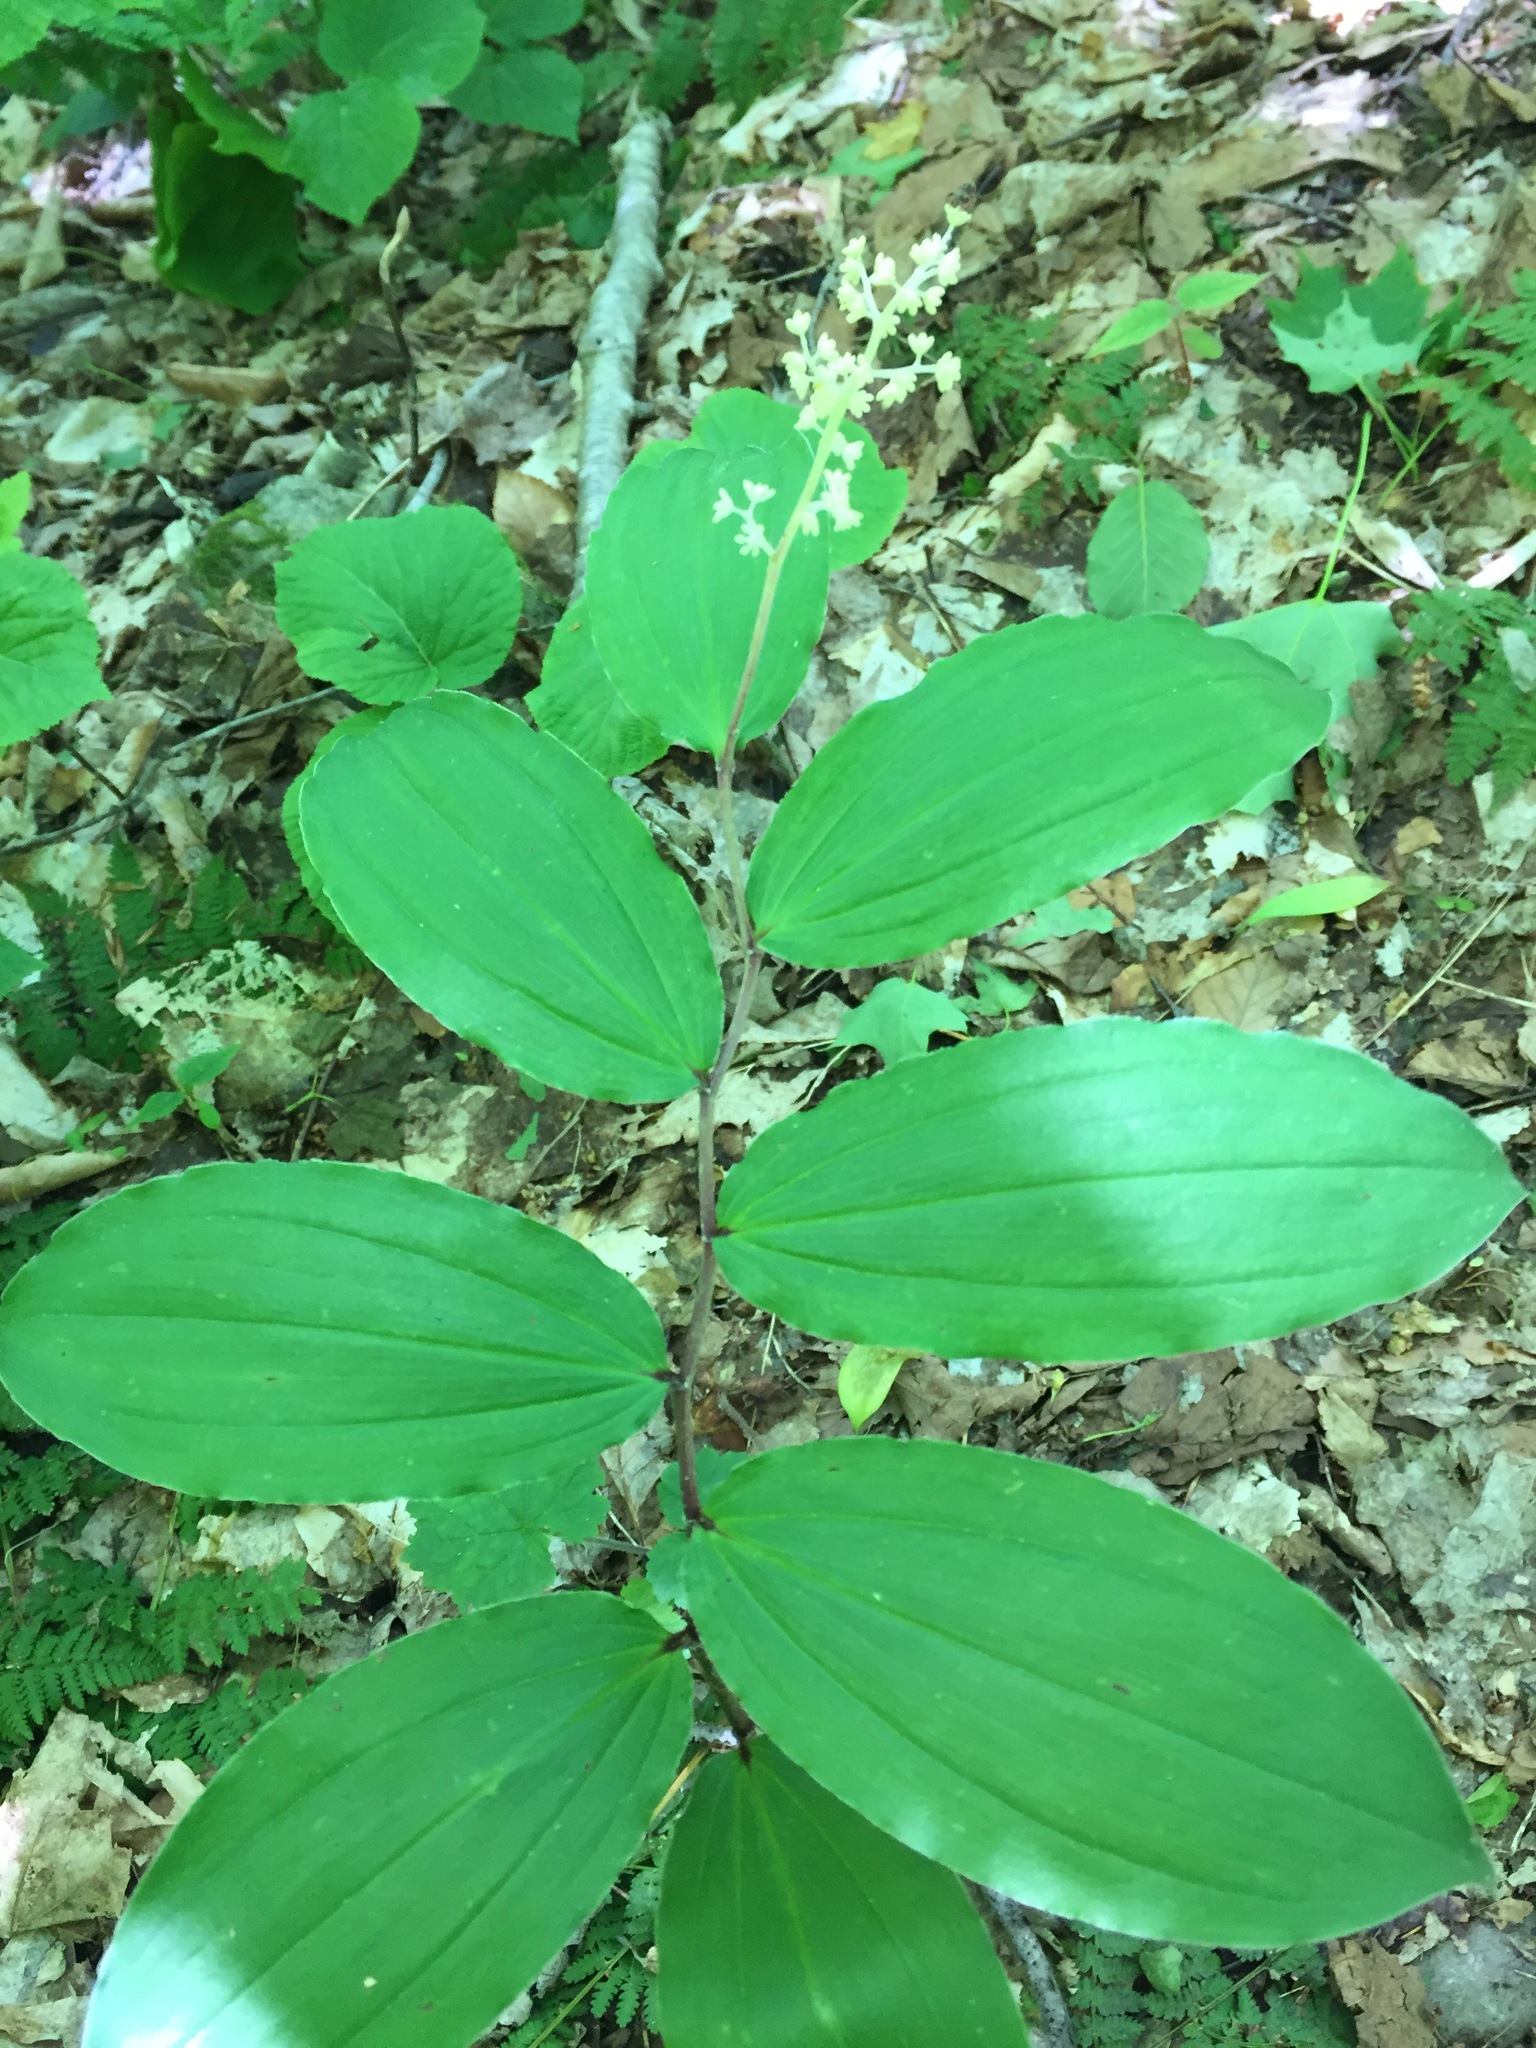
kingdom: Plantae
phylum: Tracheophyta
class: Liliopsida
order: Asparagales
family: Asparagaceae
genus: Maianthemum
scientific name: Maianthemum racemosum
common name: False spikenard
